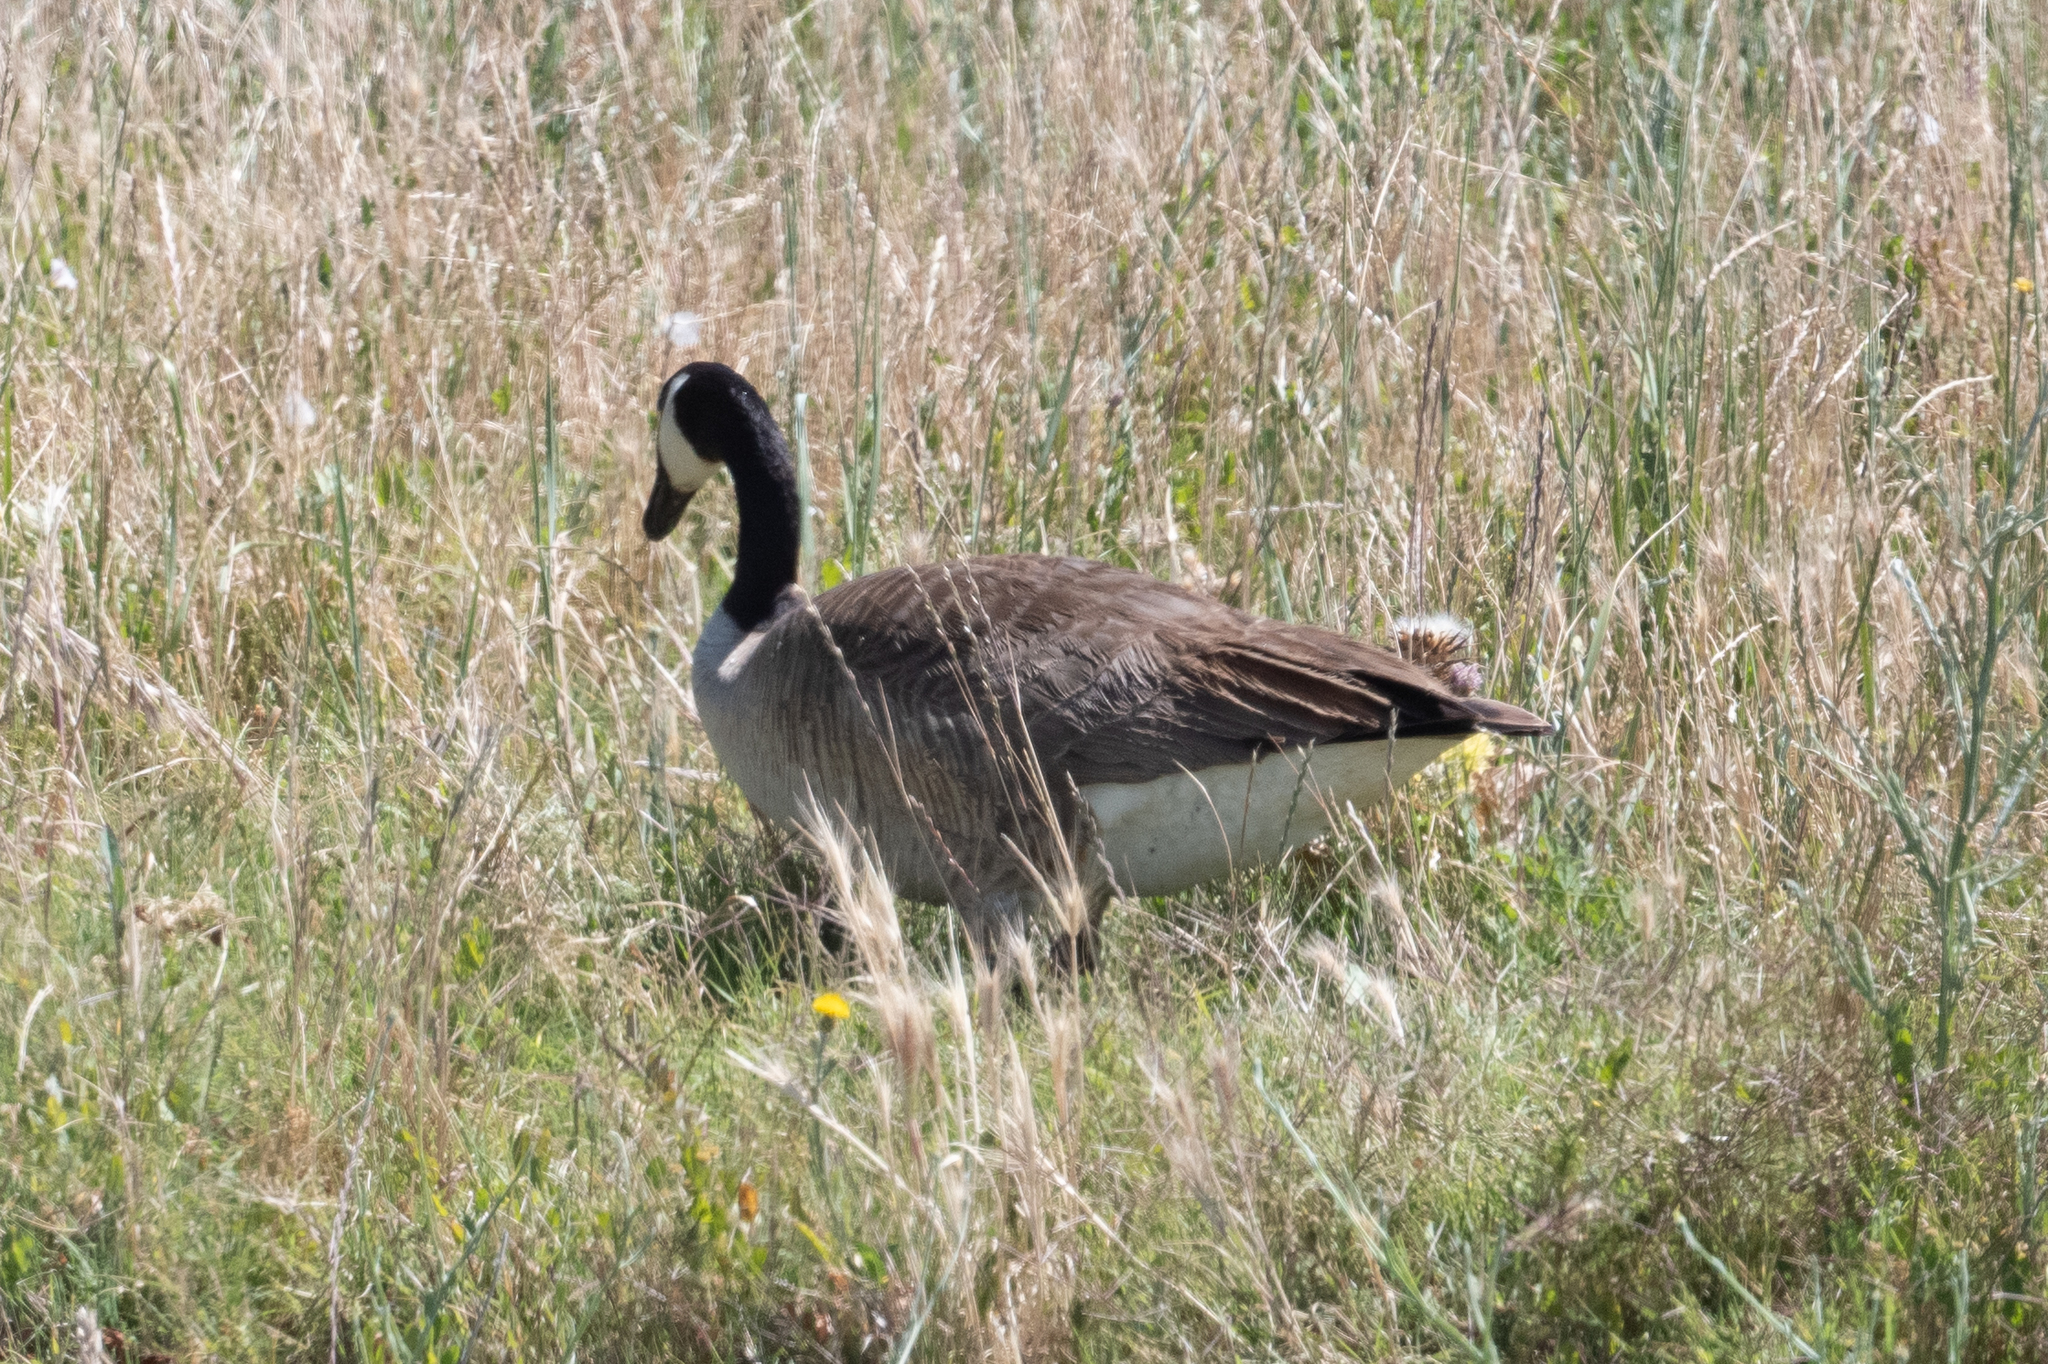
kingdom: Animalia
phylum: Chordata
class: Aves
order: Anseriformes
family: Anatidae
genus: Branta
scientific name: Branta canadensis
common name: Canada goose
